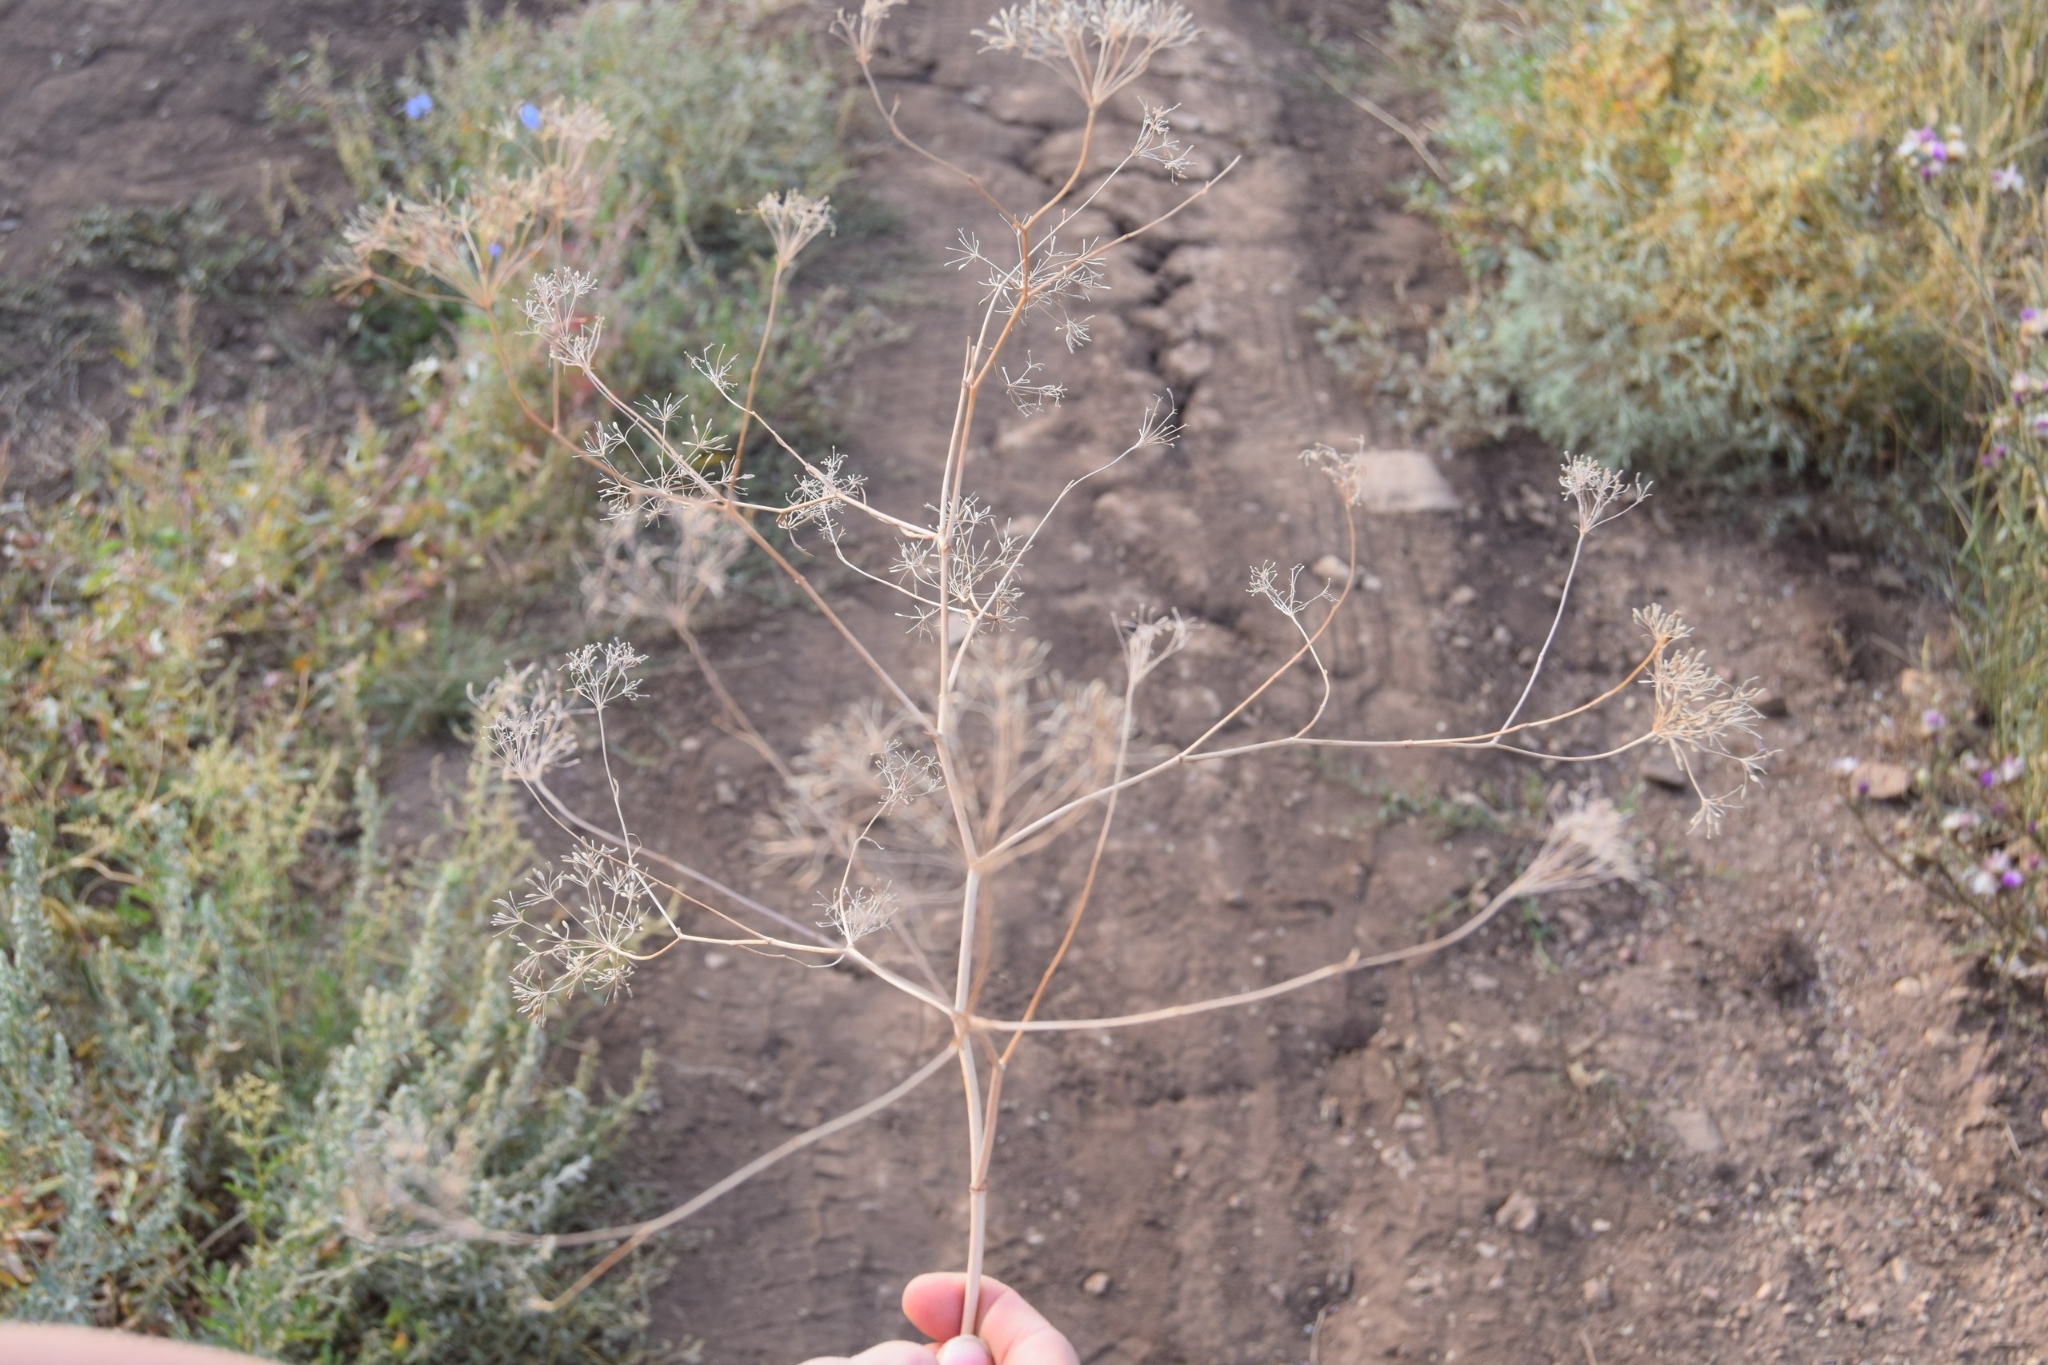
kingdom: Plantae
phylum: Tracheophyta
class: Magnoliopsida
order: Apiales
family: Apiaceae
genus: Falcaria
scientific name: Falcaria vulgaris
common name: Longleaf
